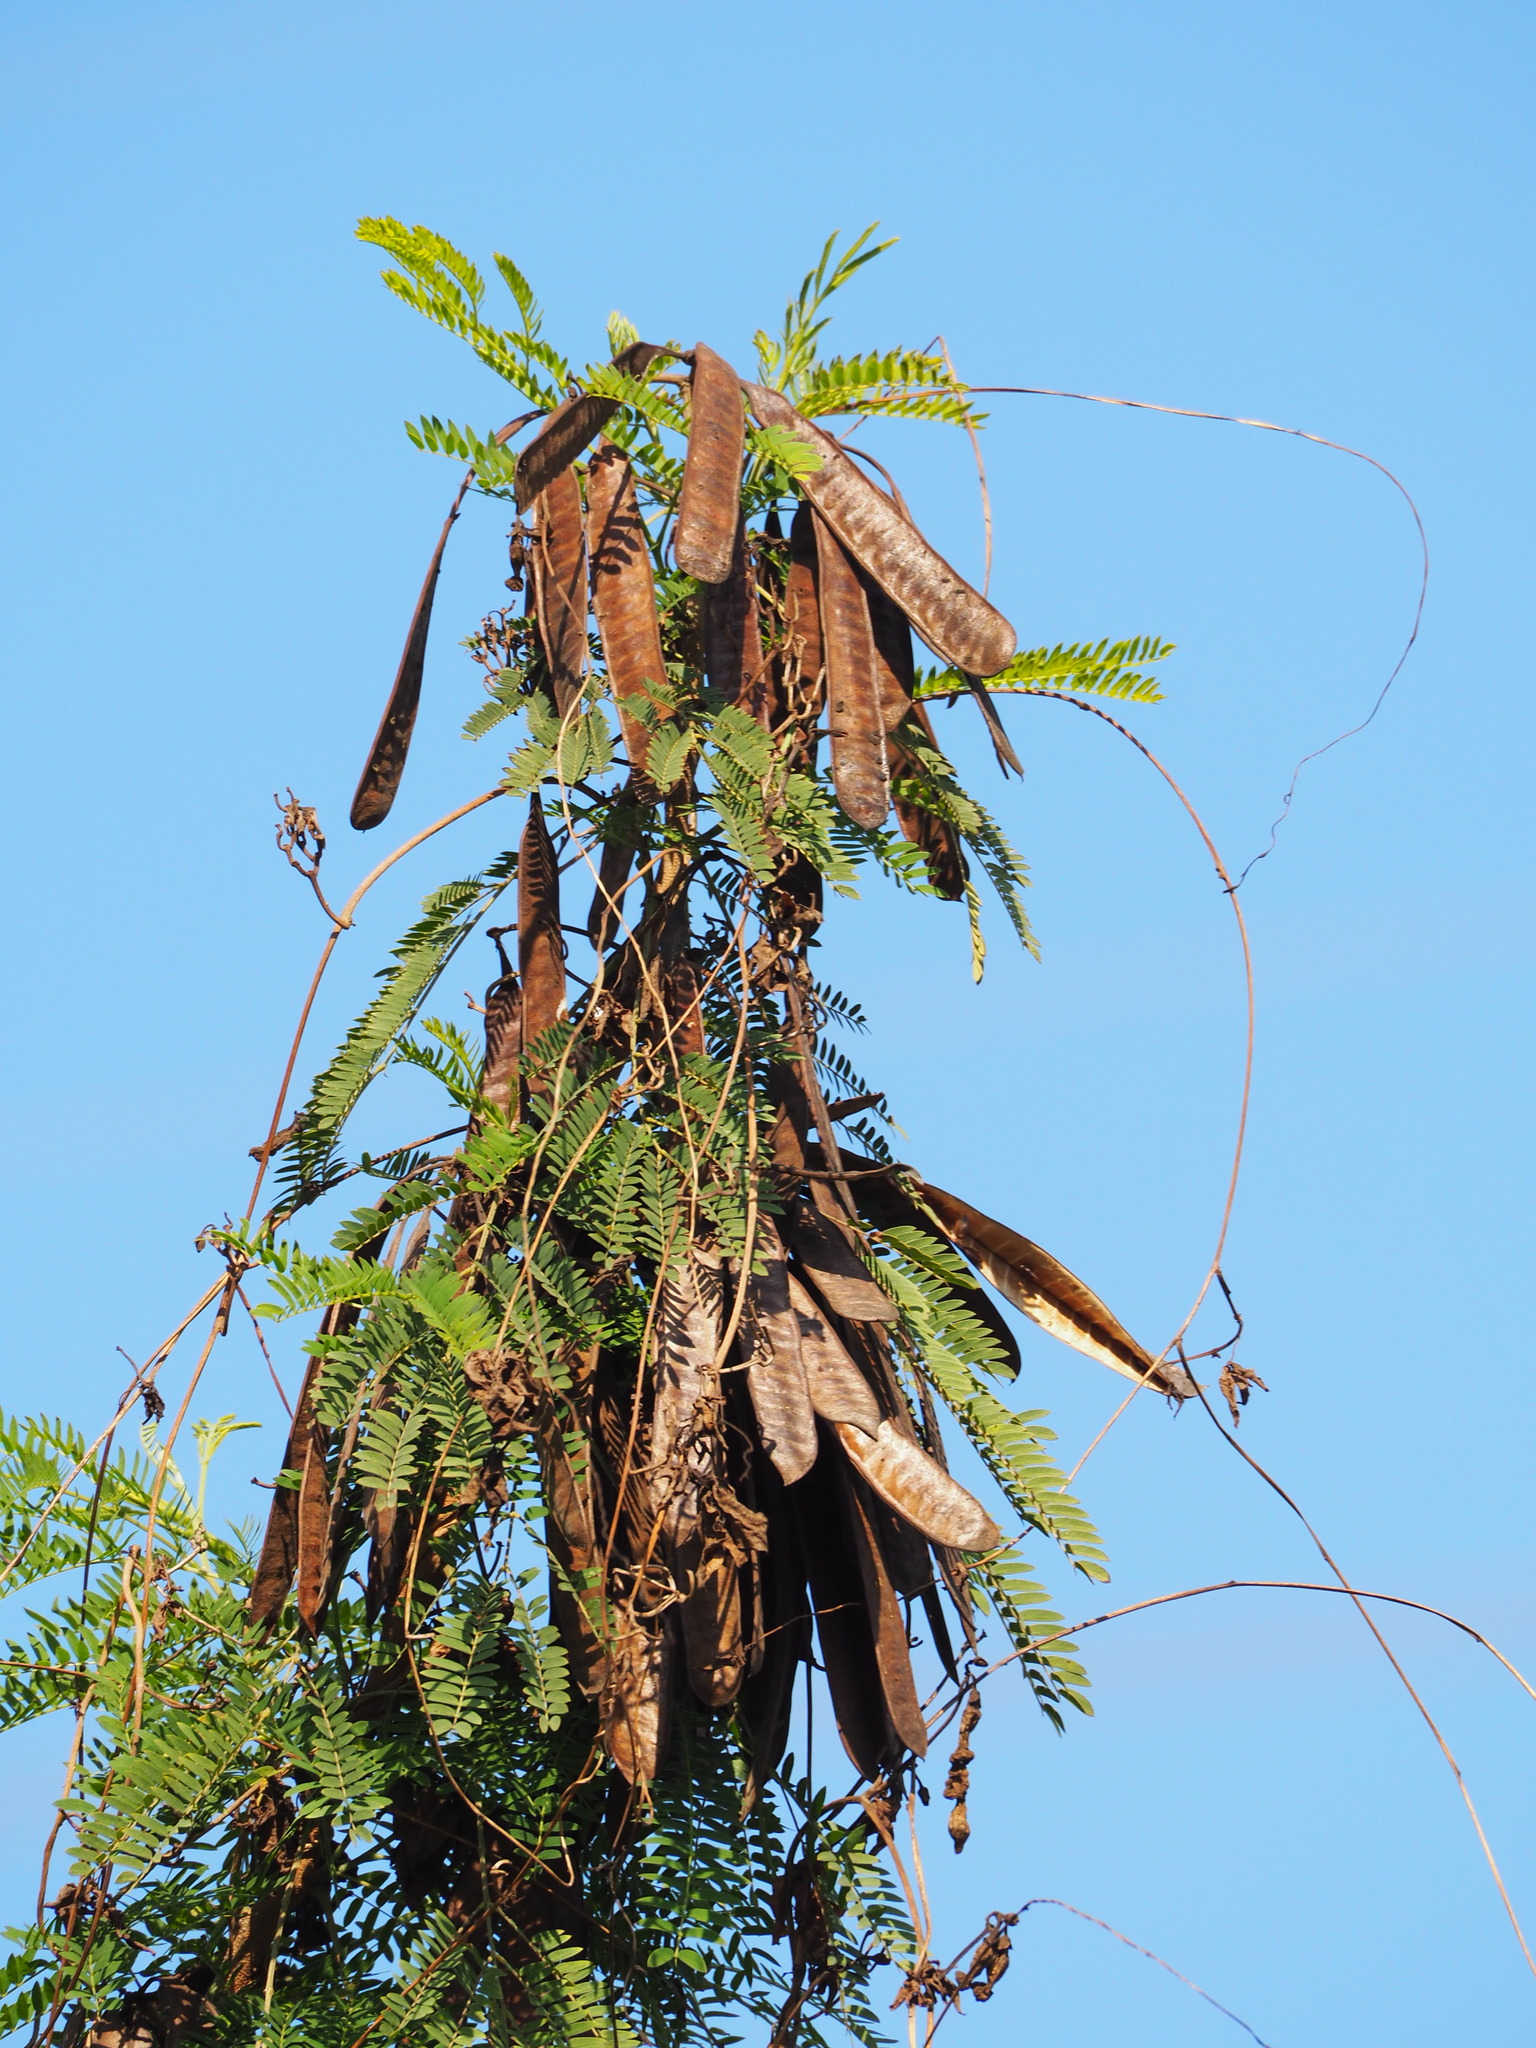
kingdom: Plantae
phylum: Tracheophyta
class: Magnoliopsida
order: Fabales
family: Fabaceae
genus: Leucaena
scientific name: Leucaena leucocephala
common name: White leadtree
